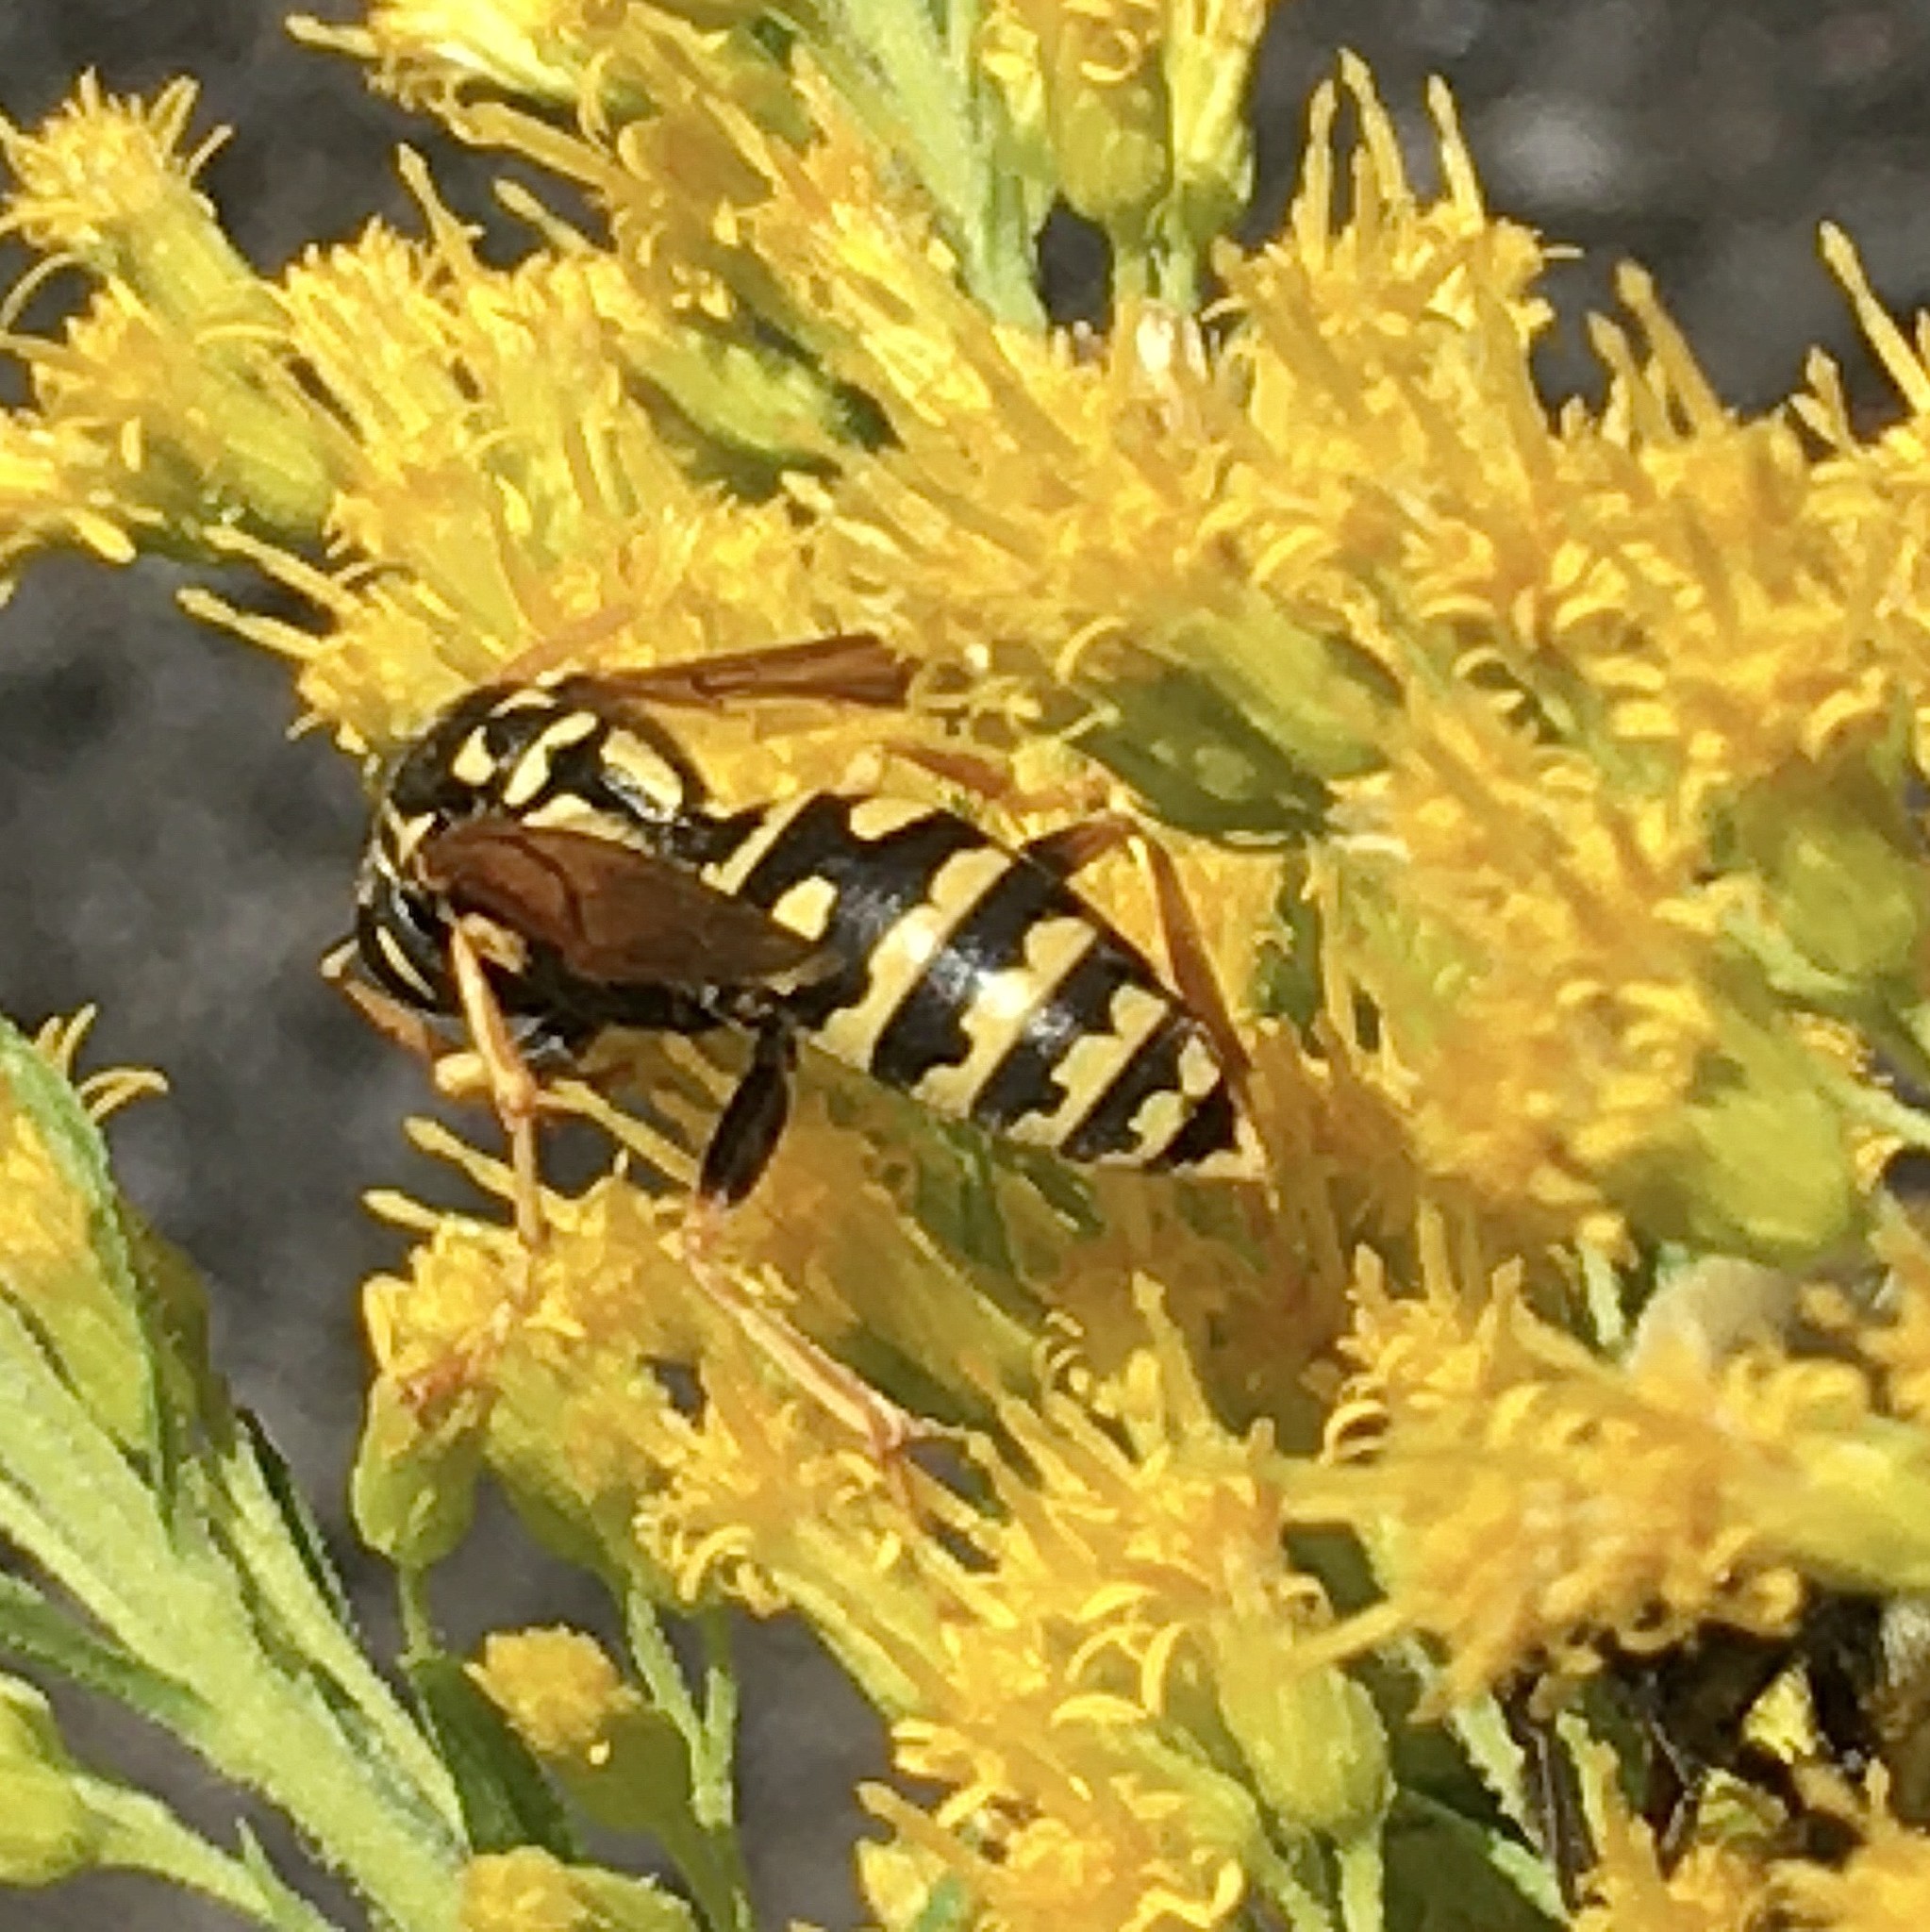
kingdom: Animalia
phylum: Arthropoda
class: Insecta
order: Hymenoptera
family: Eumenidae
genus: Polistes
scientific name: Polistes dominula
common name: Paper wasp
